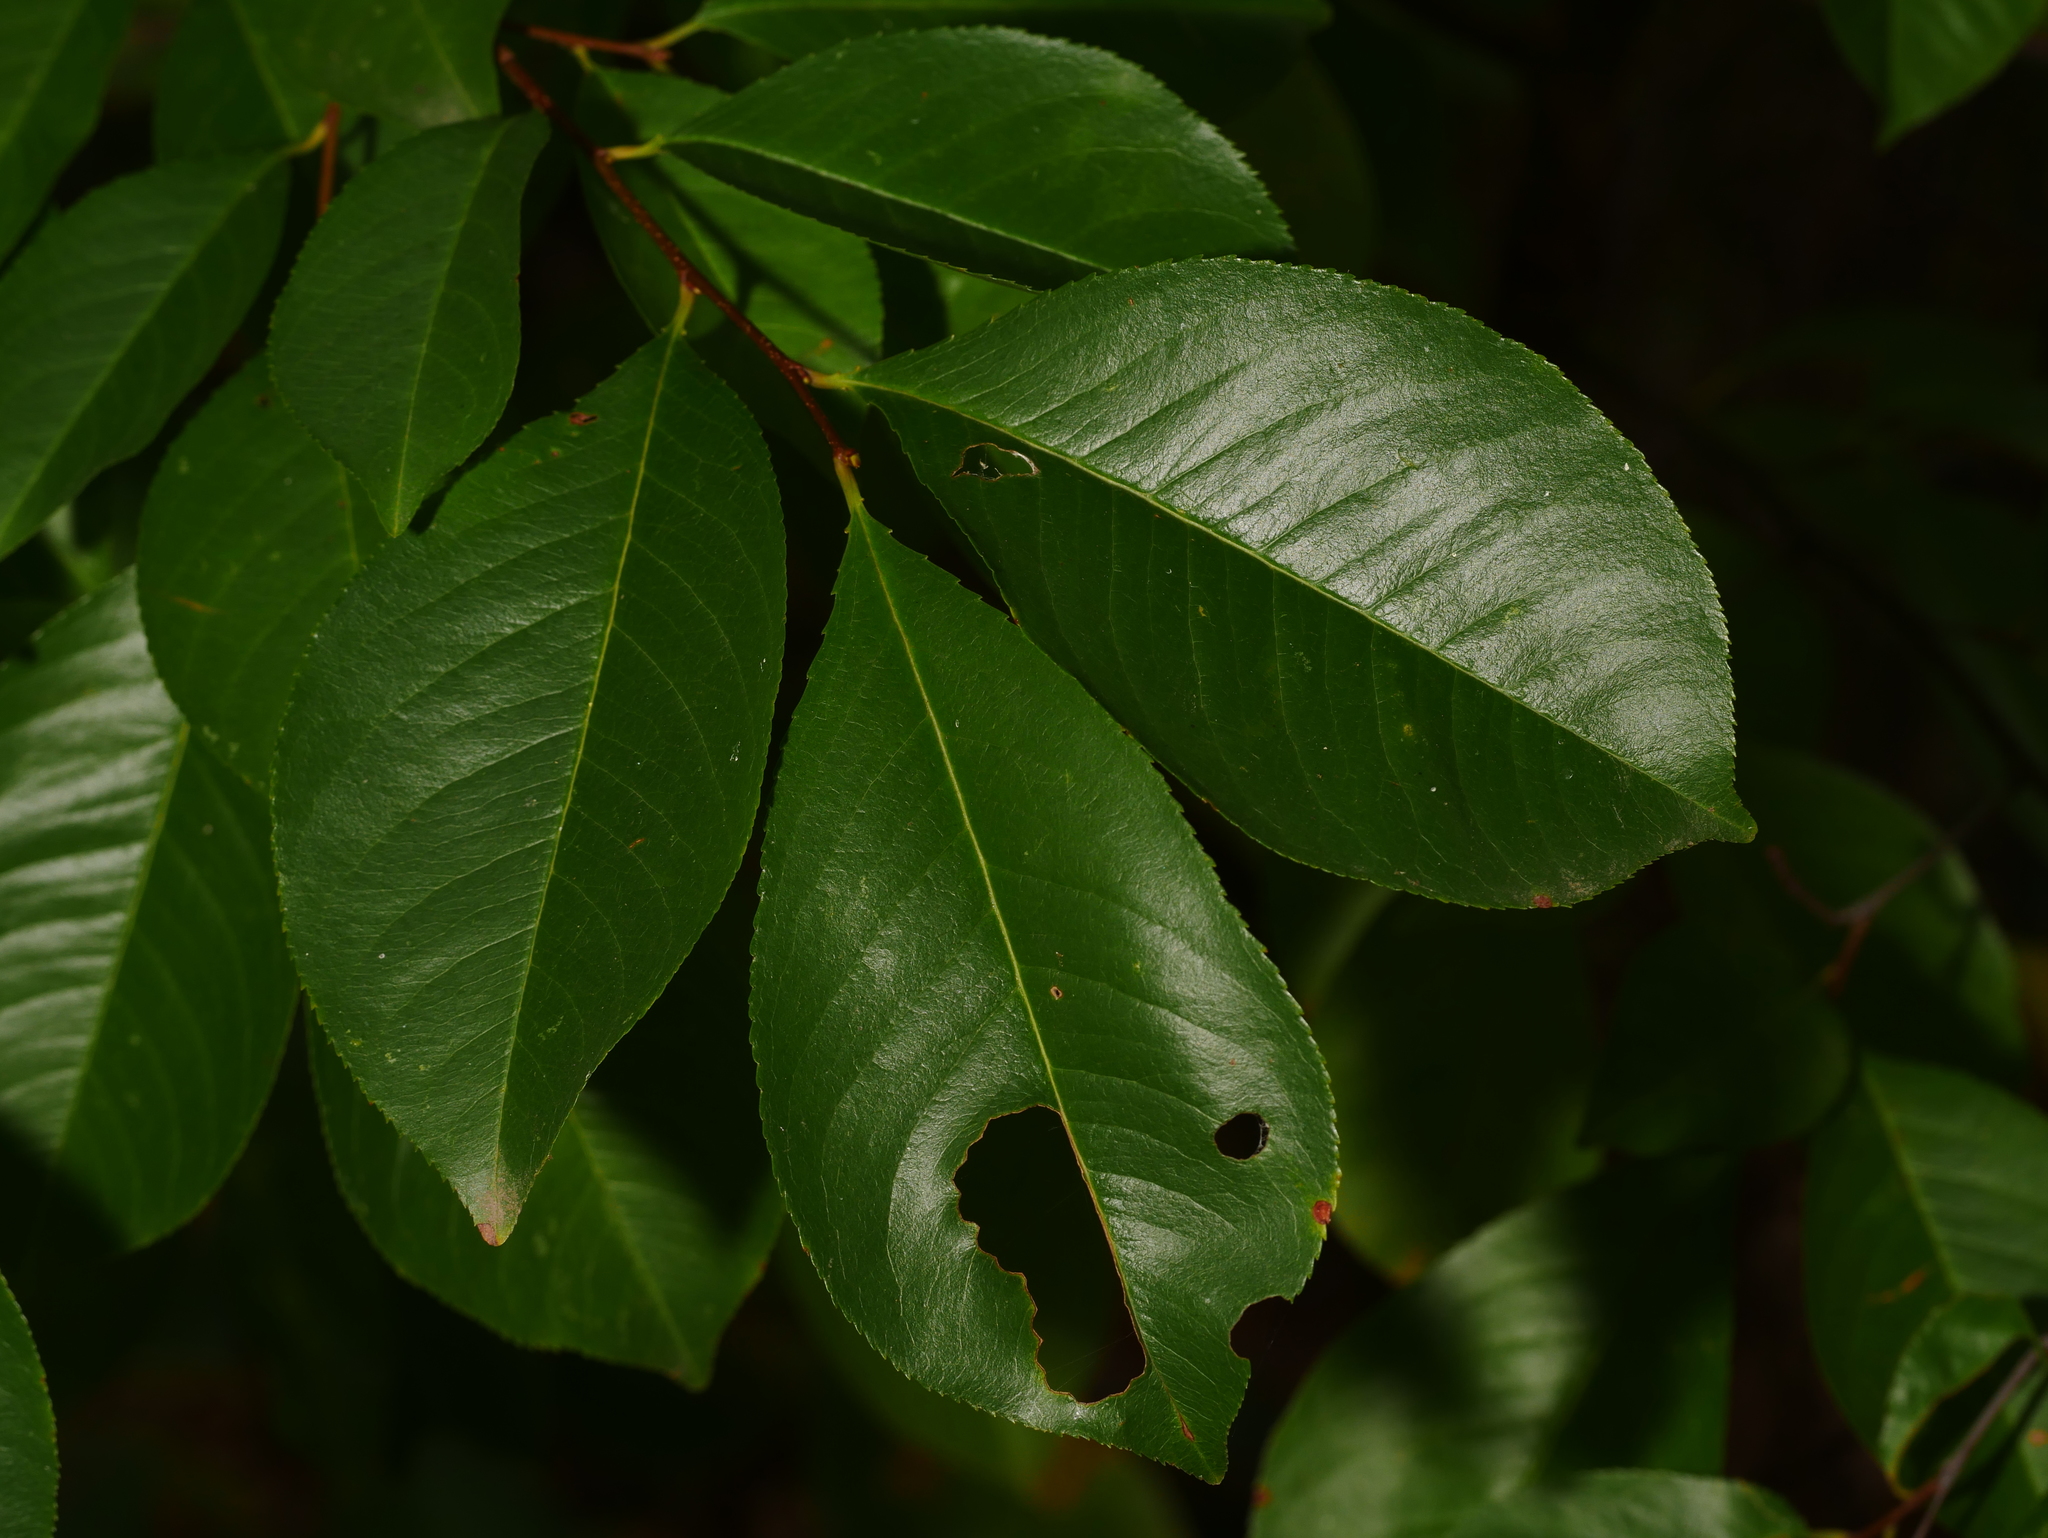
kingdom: Plantae
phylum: Tracheophyta
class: Magnoliopsida
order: Rosales
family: Rosaceae
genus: Prunus
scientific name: Prunus serotina
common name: Black cherry
